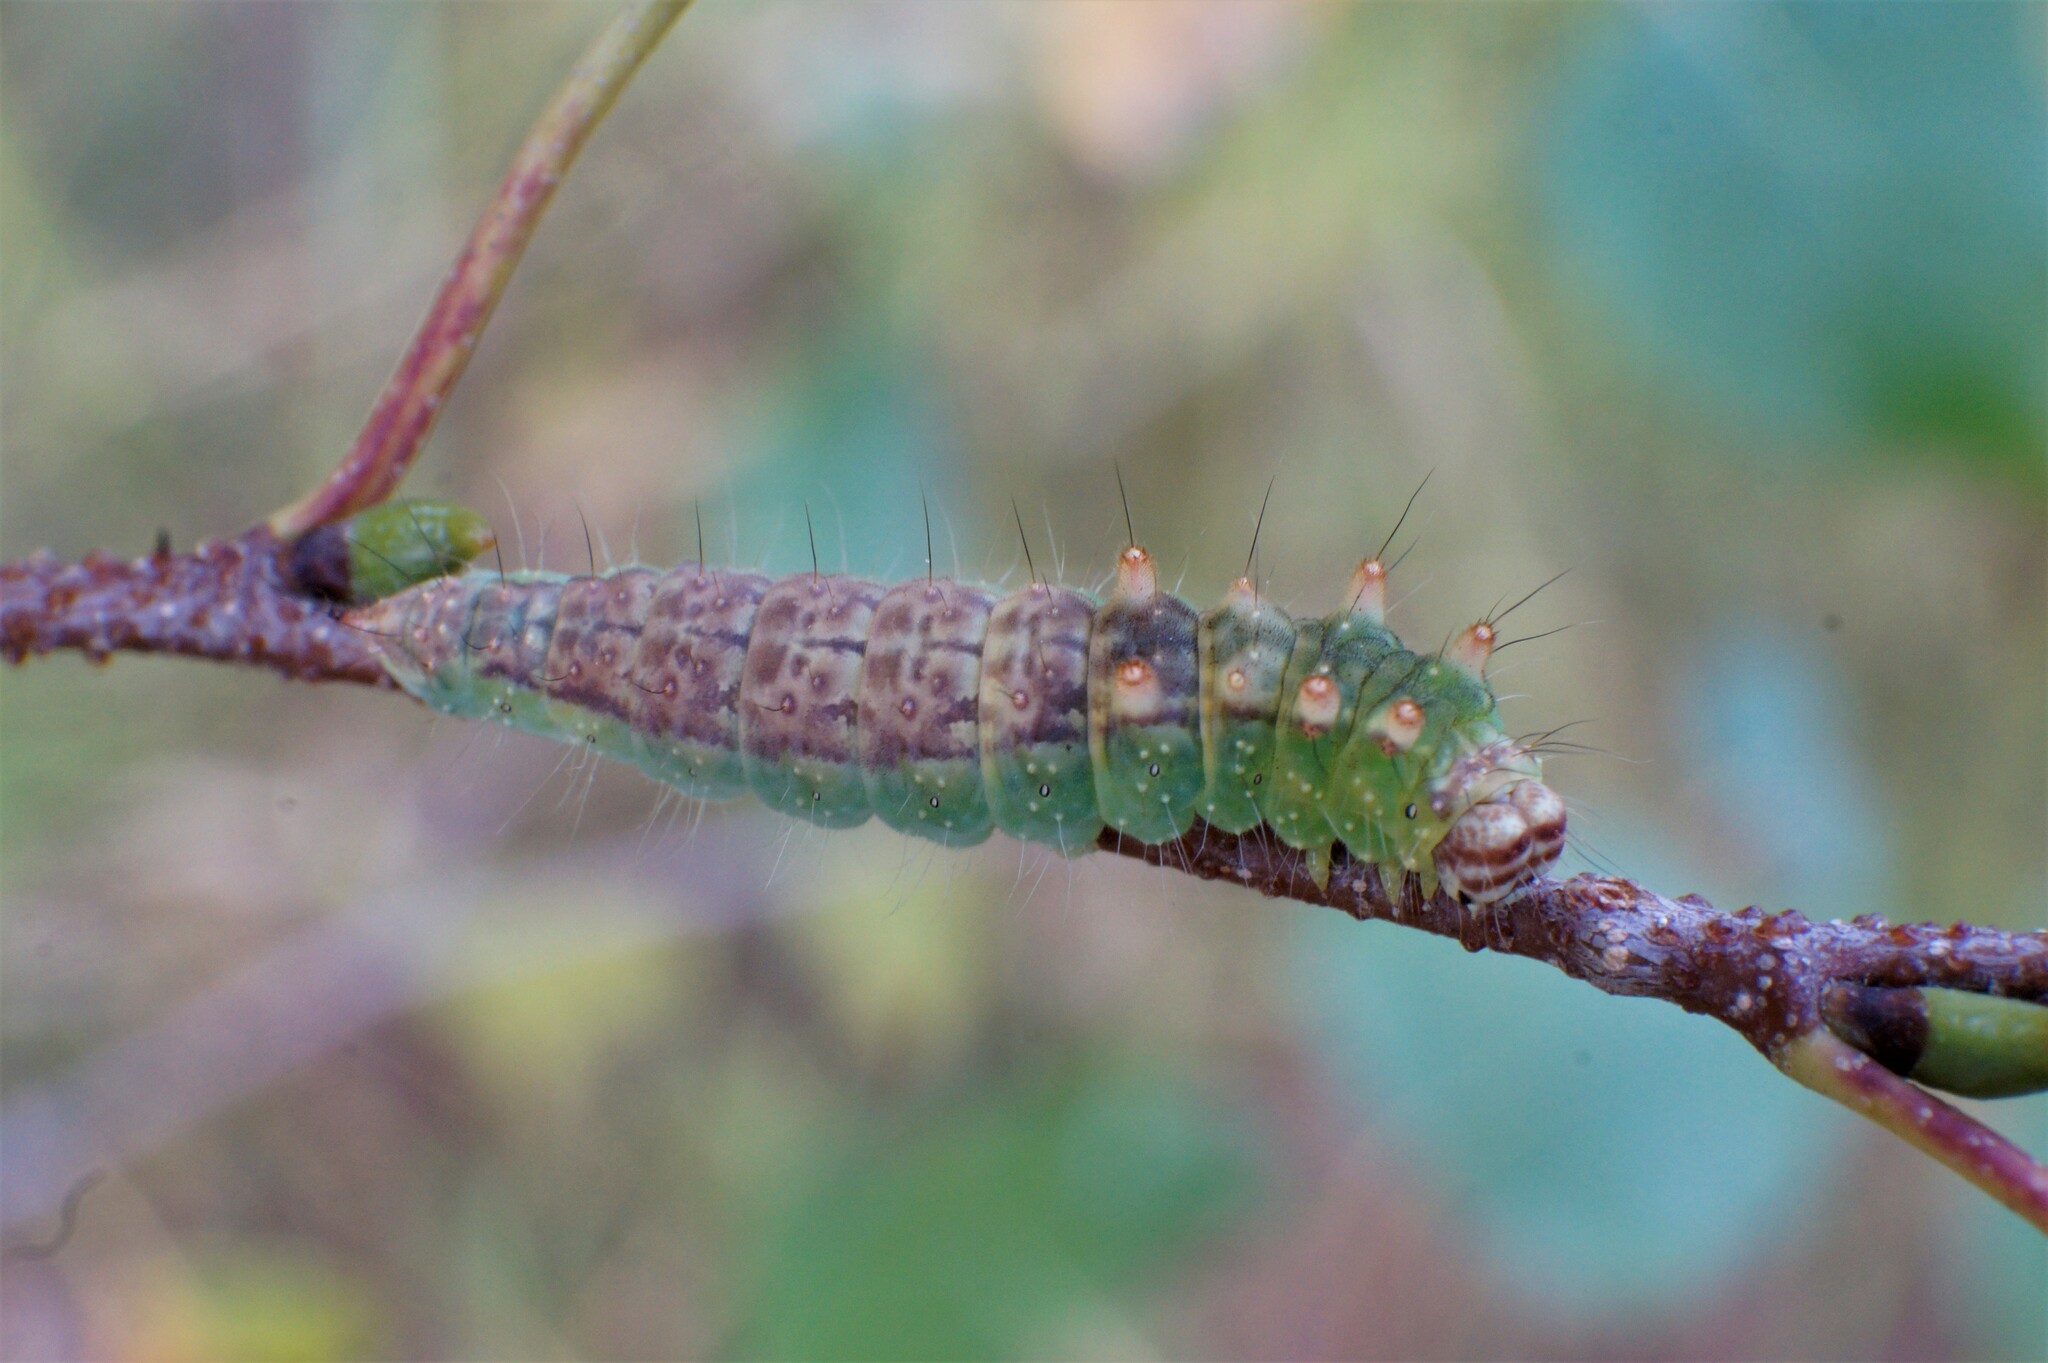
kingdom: Animalia
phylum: Arthropoda
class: Insecta
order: Lepidoptera
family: Drepanidae
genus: Drepana
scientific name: Drepana falcataria
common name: Pebble hook-tip
